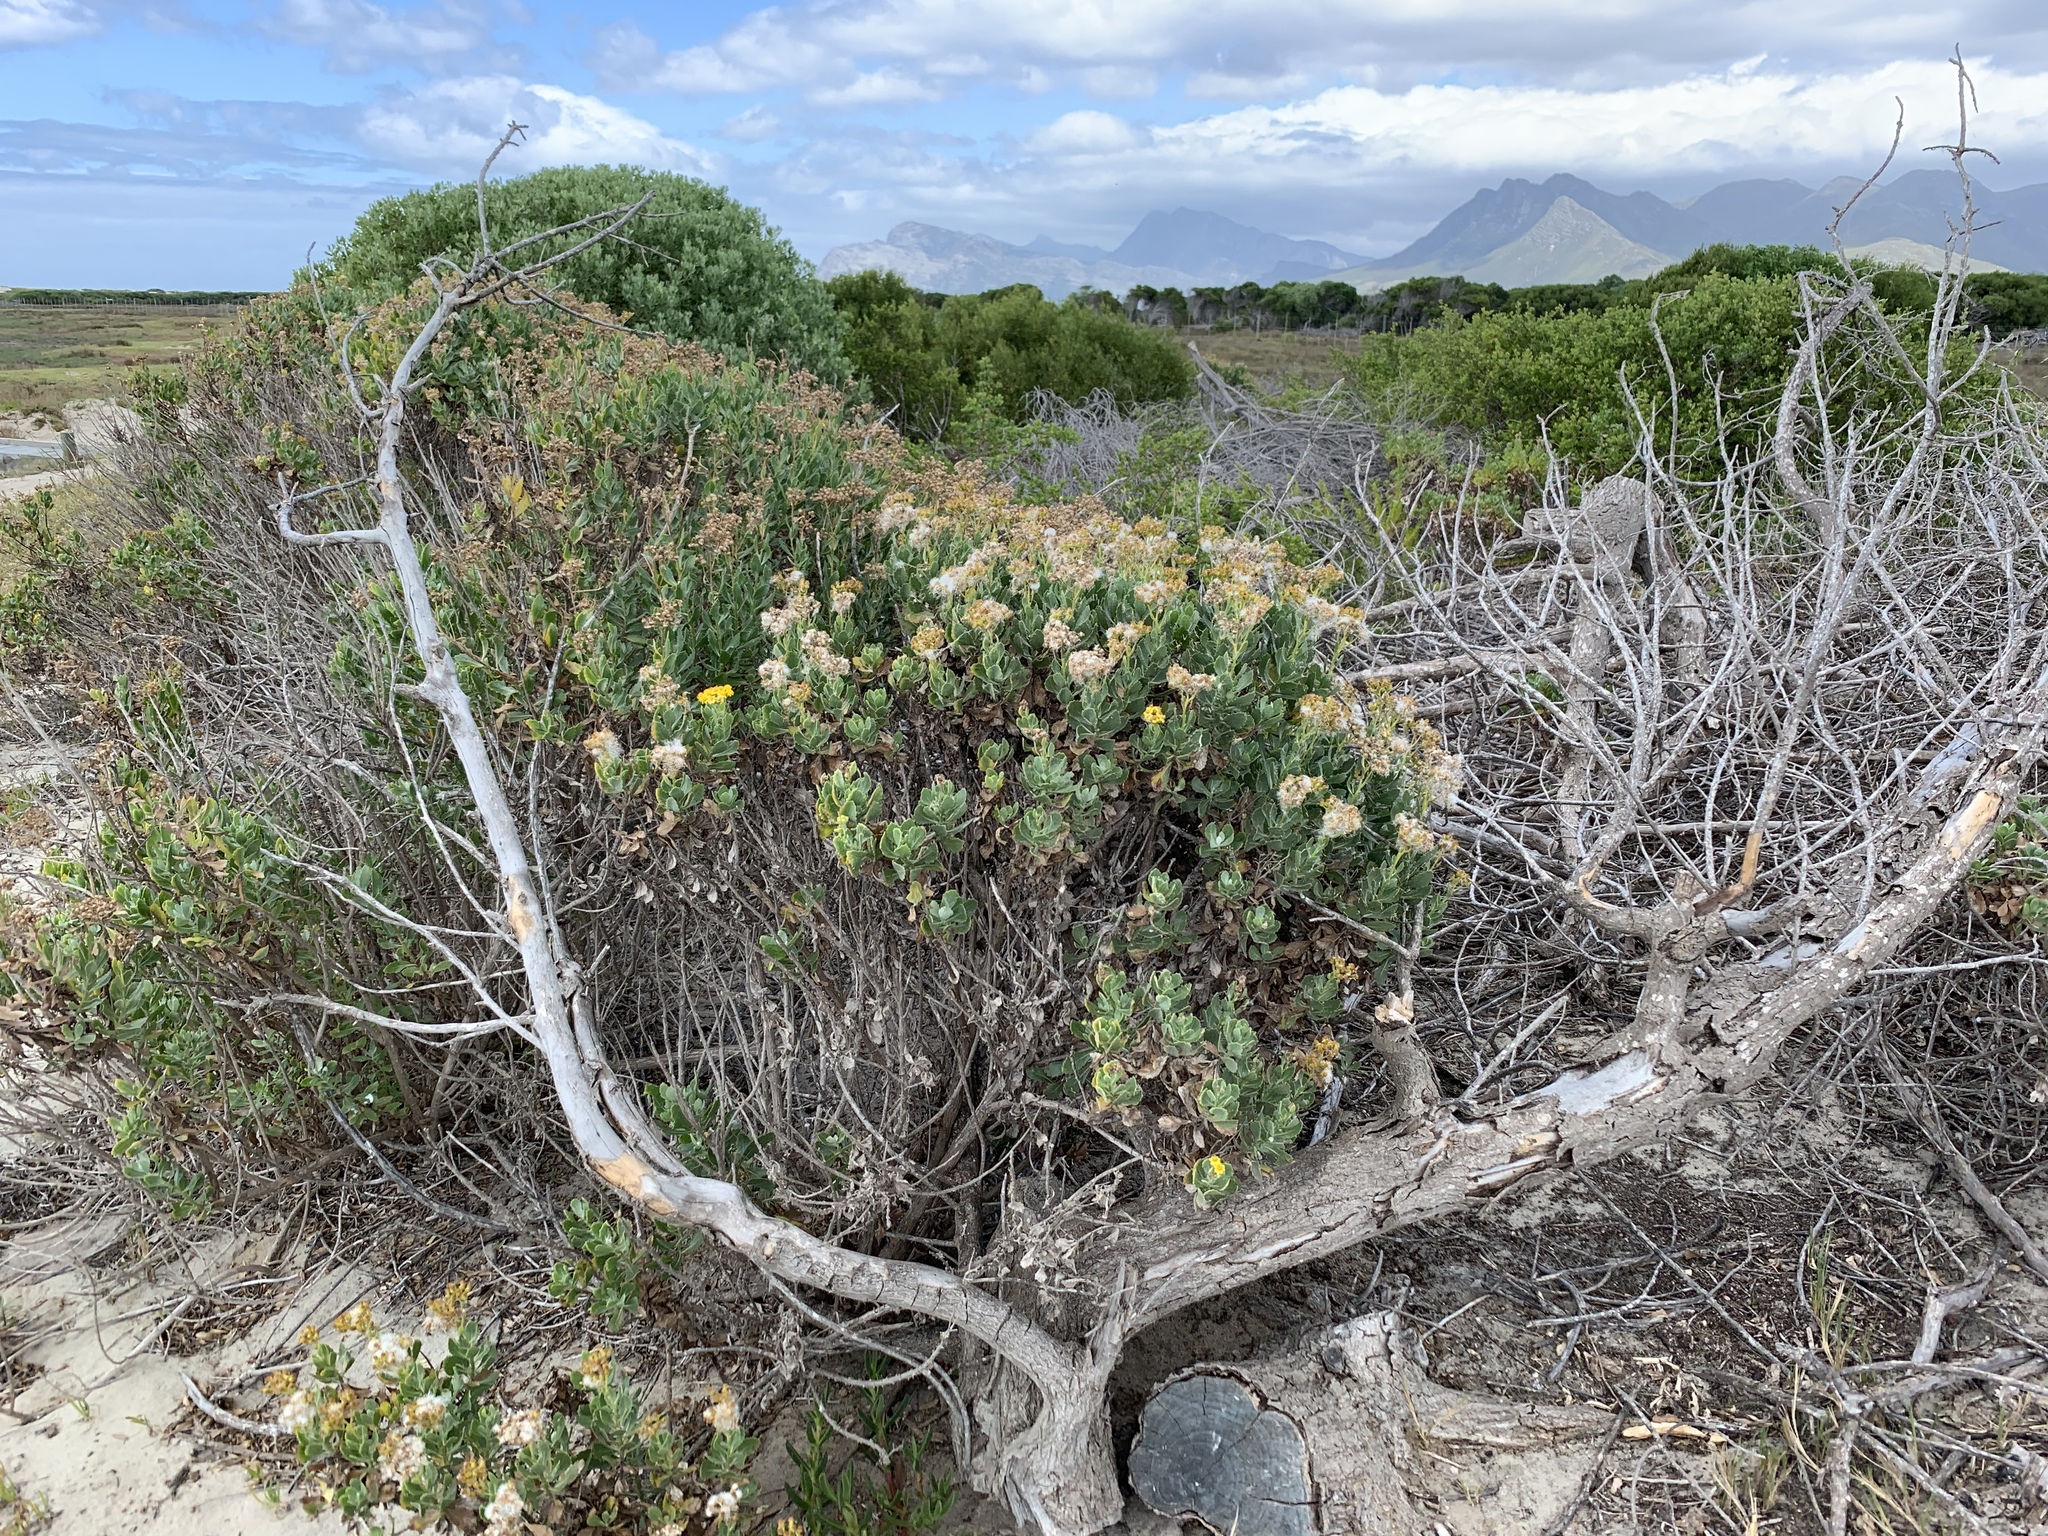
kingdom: Plantae
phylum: Tracheophyta
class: Magnoliopsida
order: Asterales
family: Asteraceae
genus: Senecio
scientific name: Senecio halimifolius
